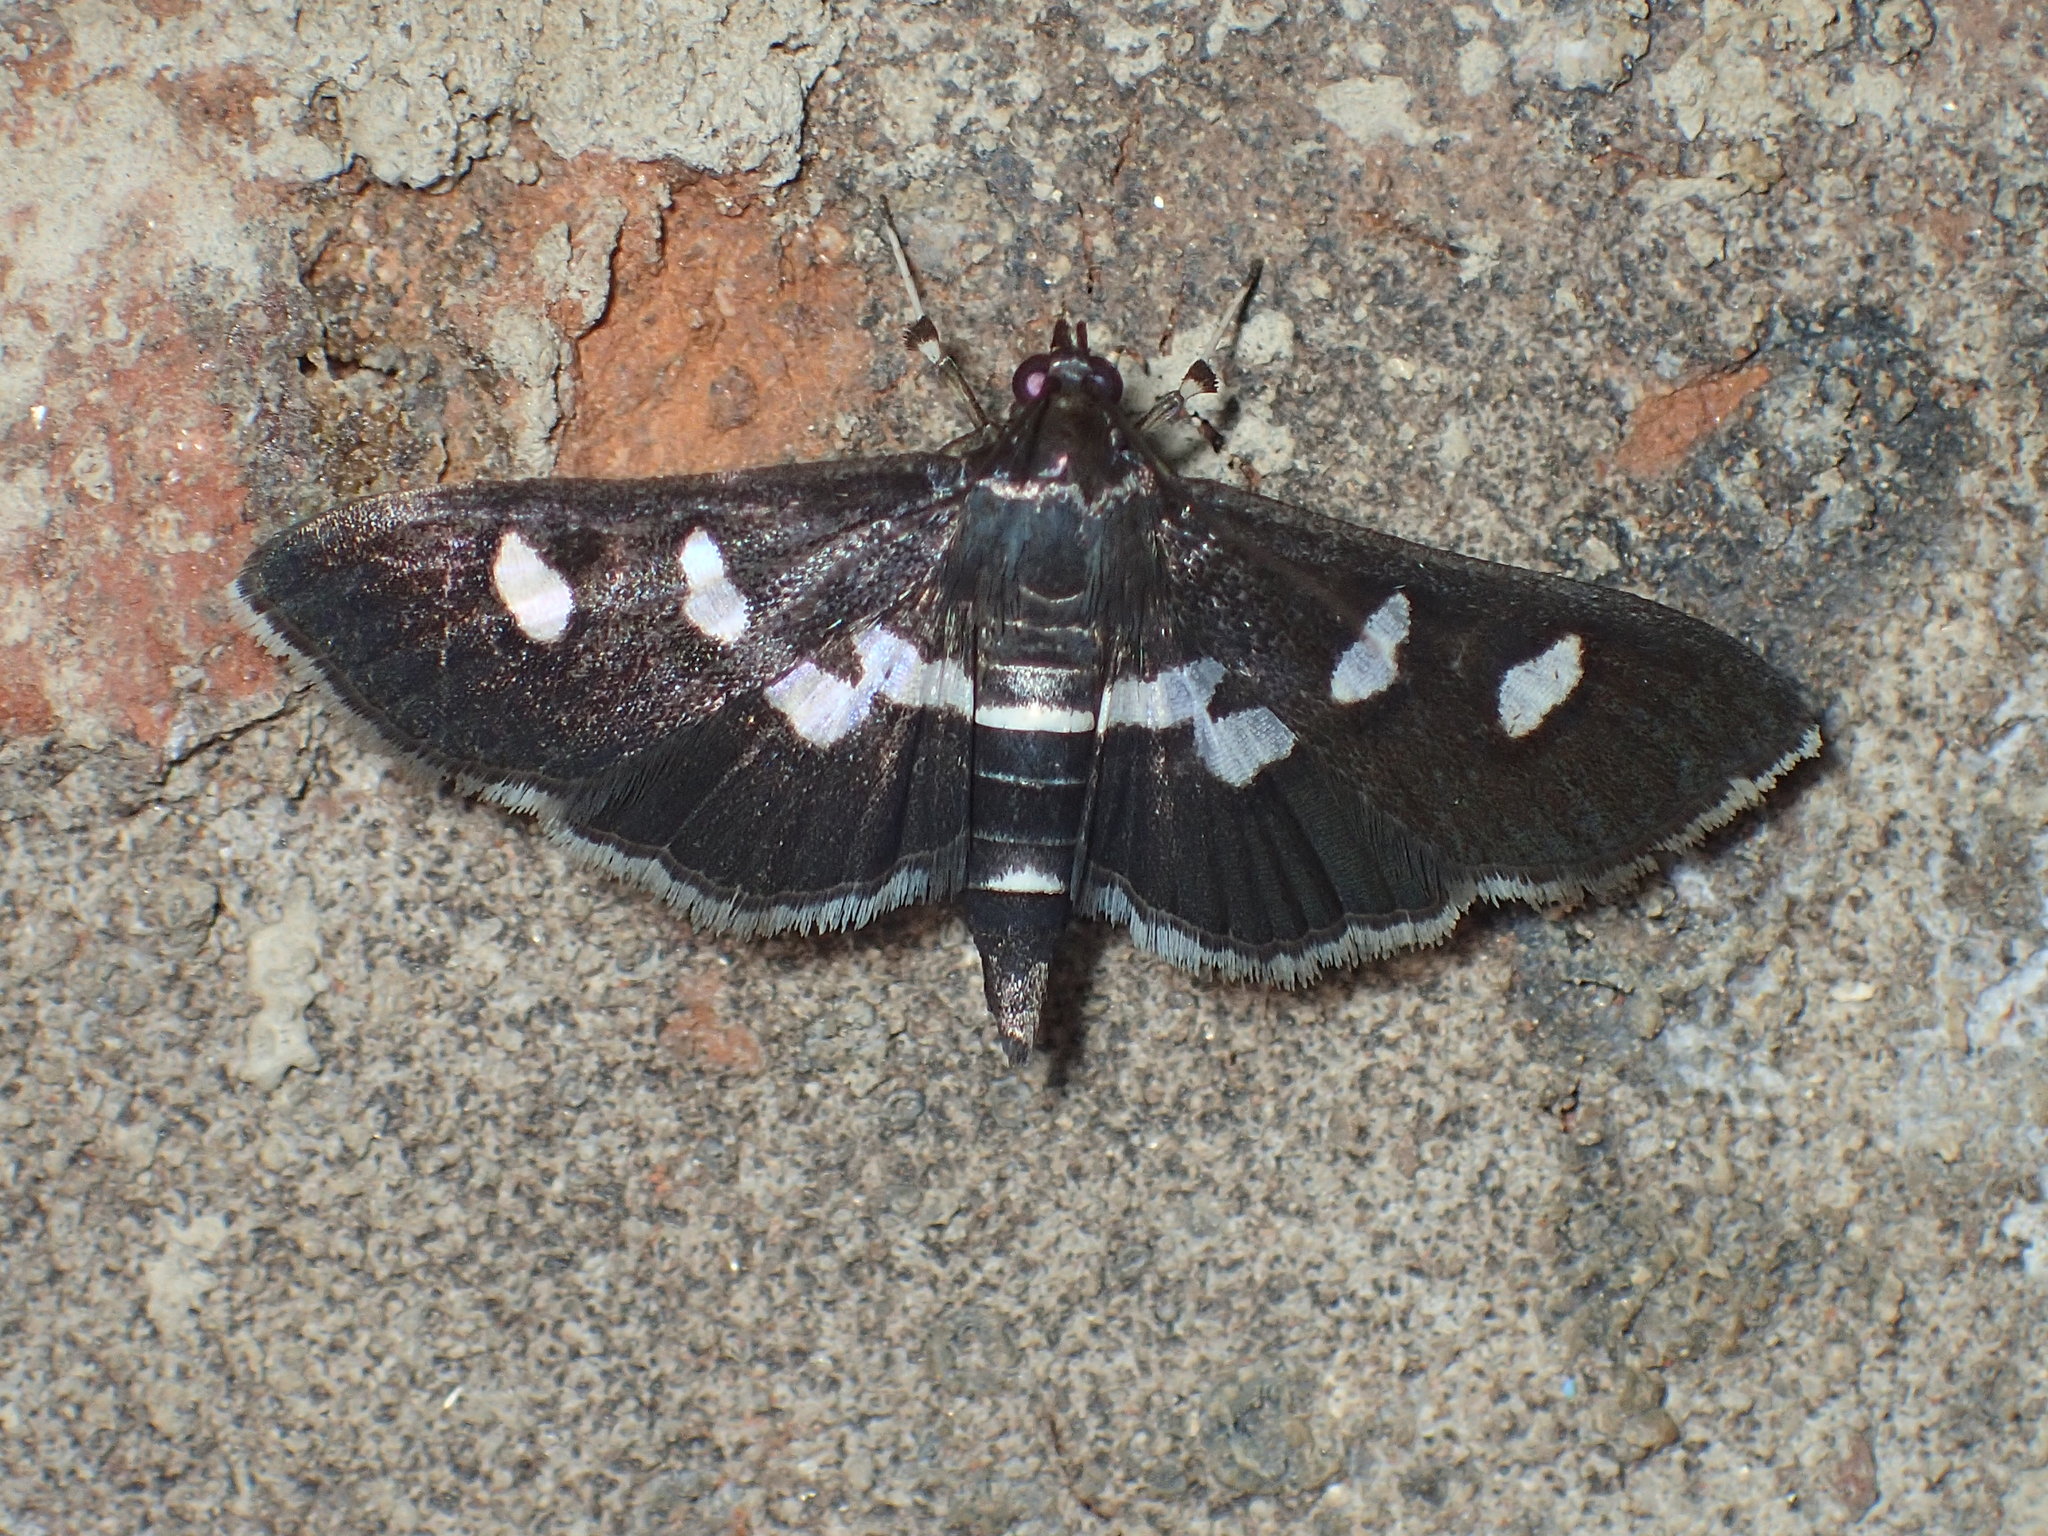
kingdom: Animalia
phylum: Arthropoda
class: Insecta
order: Lepidoptera
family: Crambidae
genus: Desmia
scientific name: Desmia
